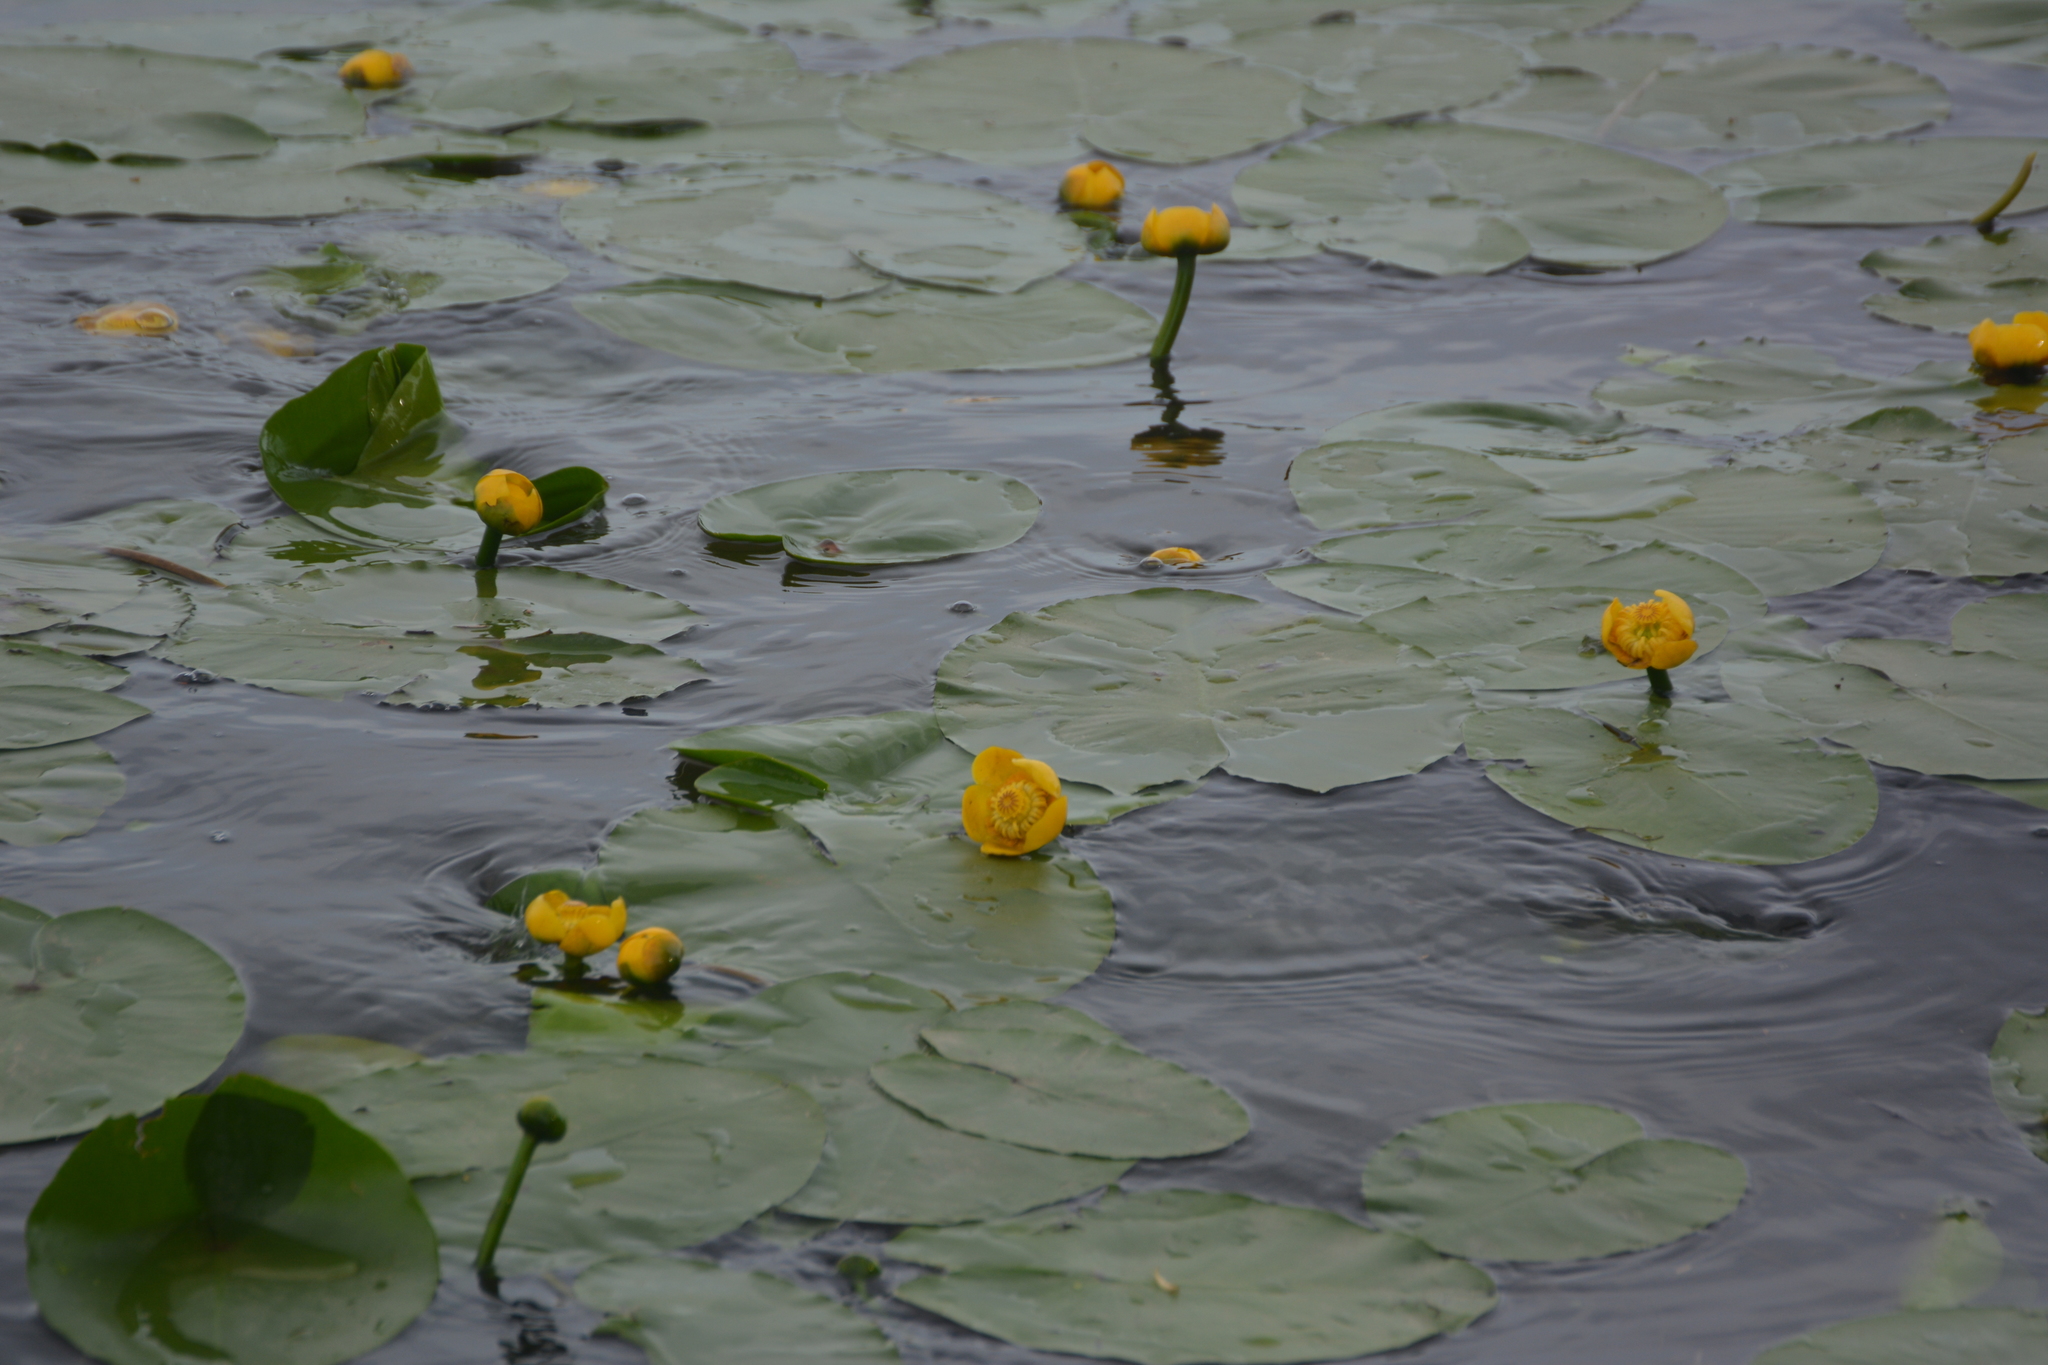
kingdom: Plantae
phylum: Tracheophyta
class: Magnoliopsida
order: Nymphaeales
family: Nymphaeaceae
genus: Nuphar
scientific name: Nuphar lutea
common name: Yellow water-lily
